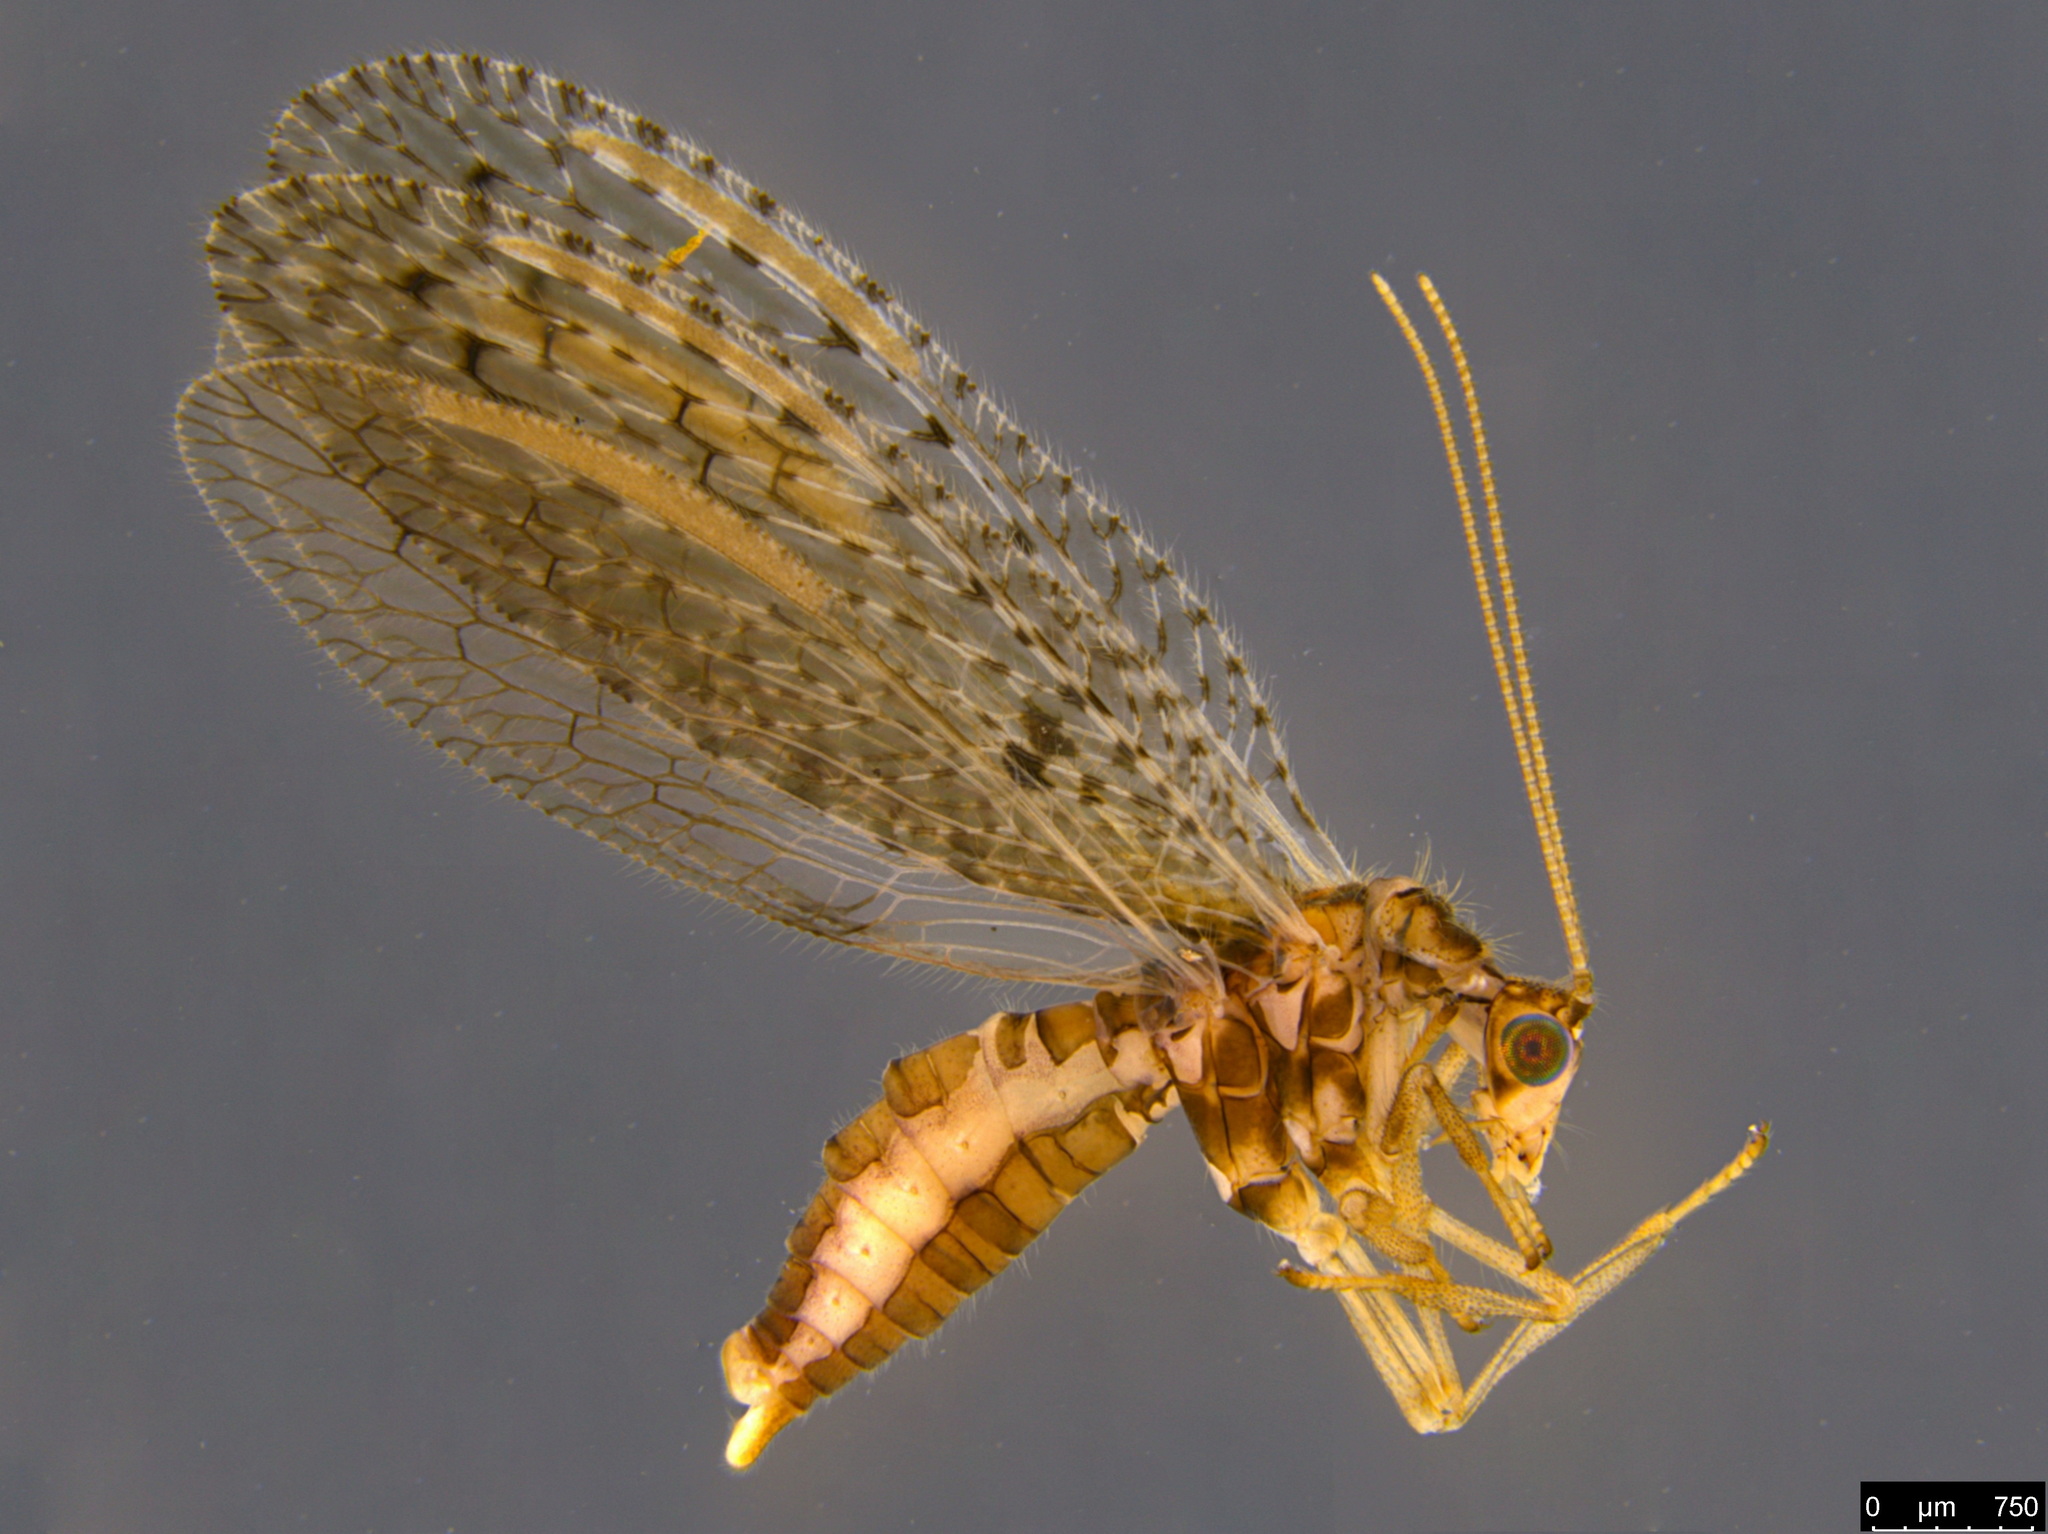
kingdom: Animalia
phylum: Arthropoda
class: Insecta
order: Neuroptera
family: Hemerobiidae
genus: Micromus
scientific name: Micromus tasmaniae
